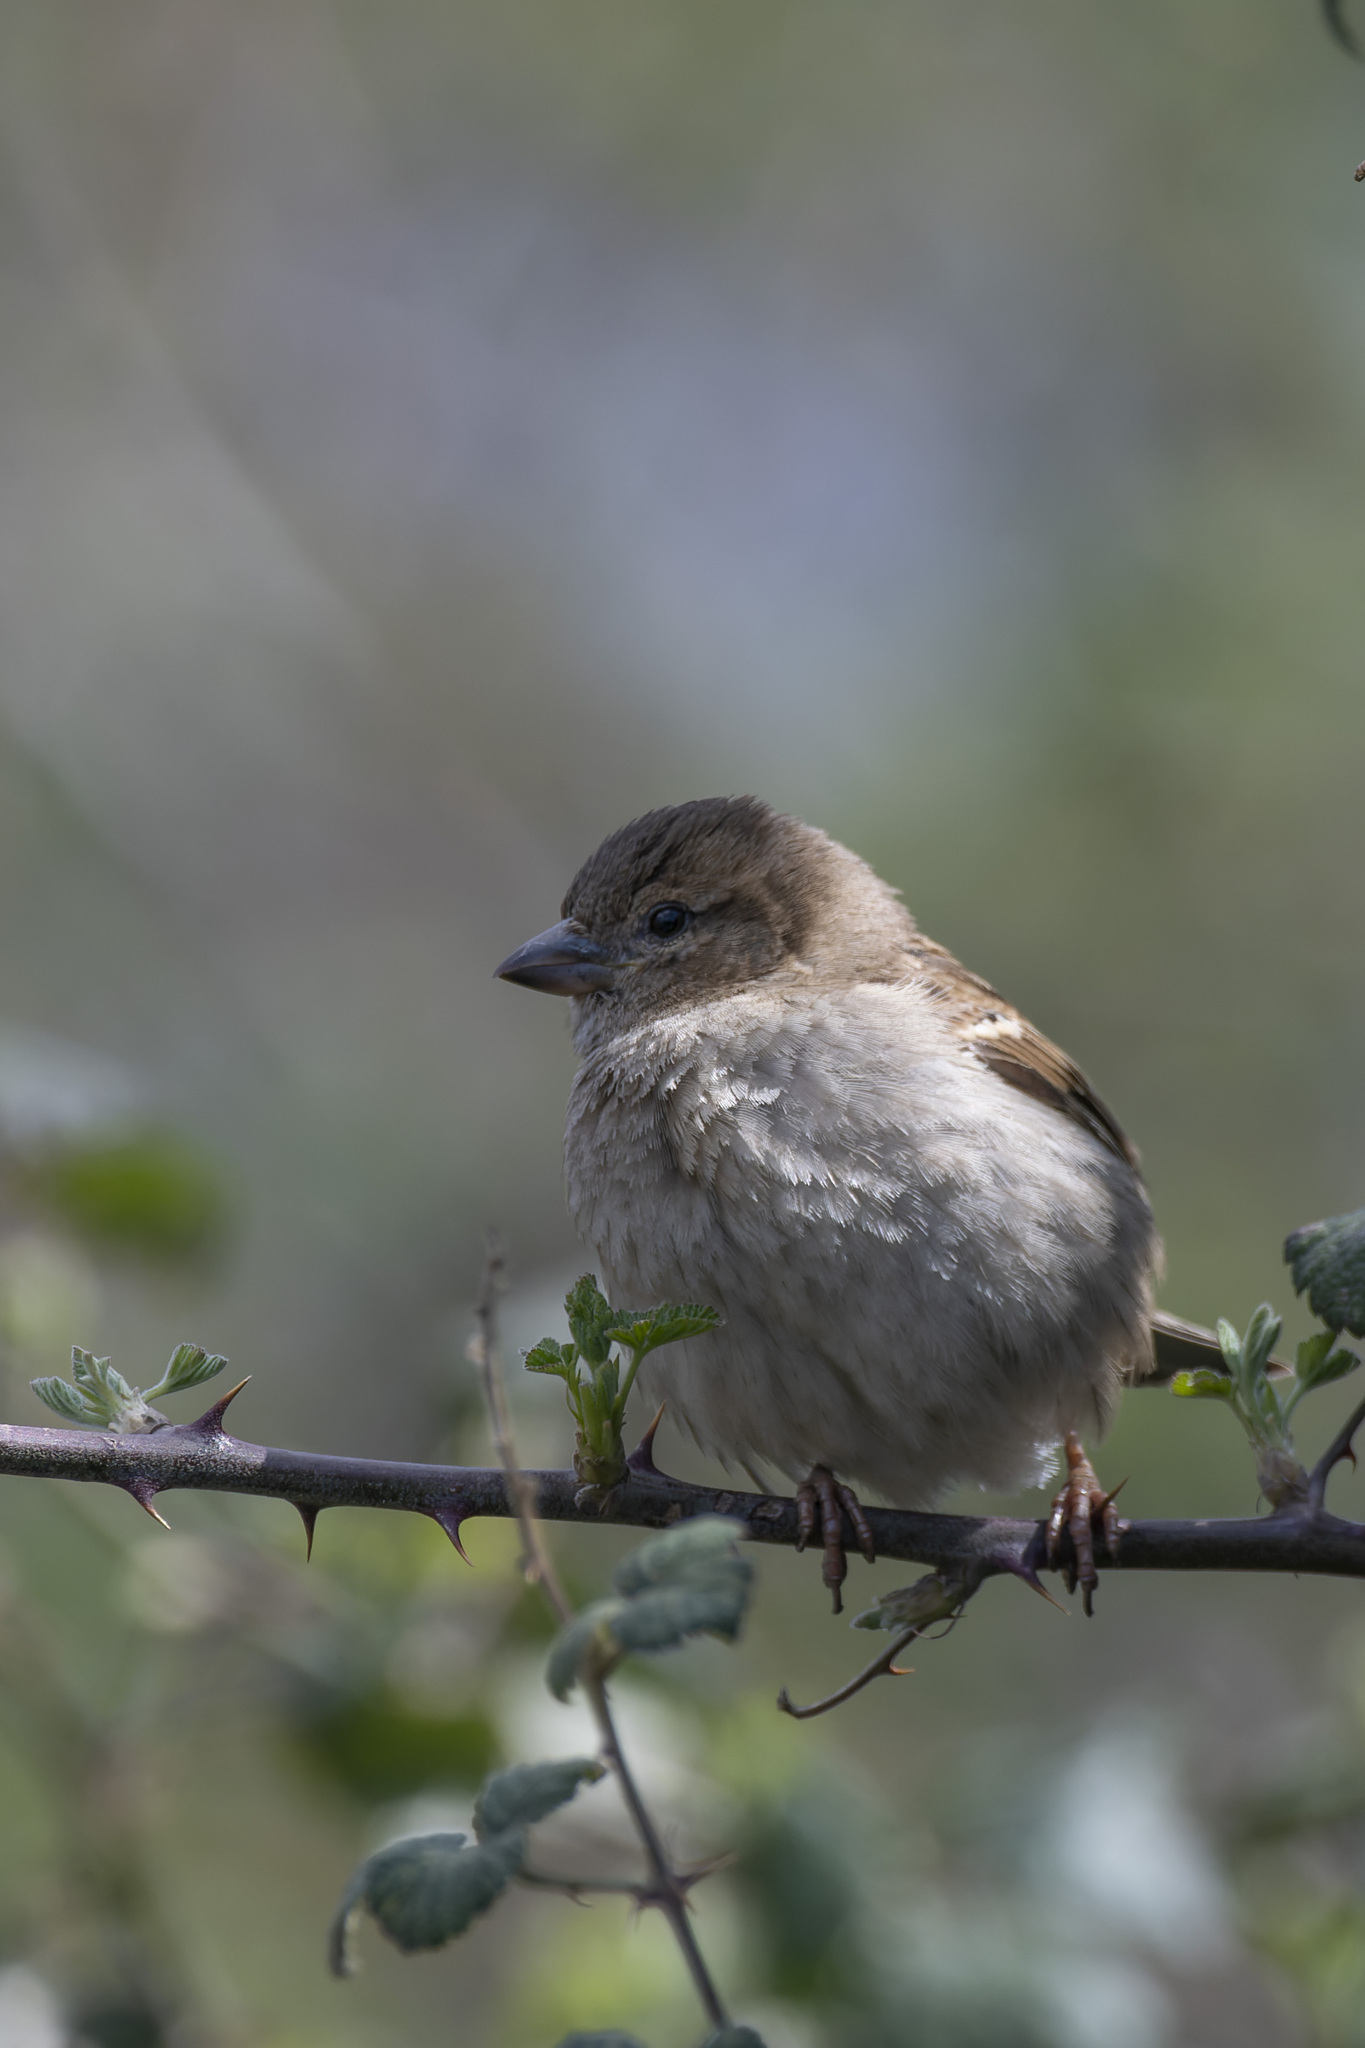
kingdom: Animalia
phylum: Chordata
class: Aves
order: Passeriformes
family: Passeridae
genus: Passer
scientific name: Passer domesticus
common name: House sparrow
